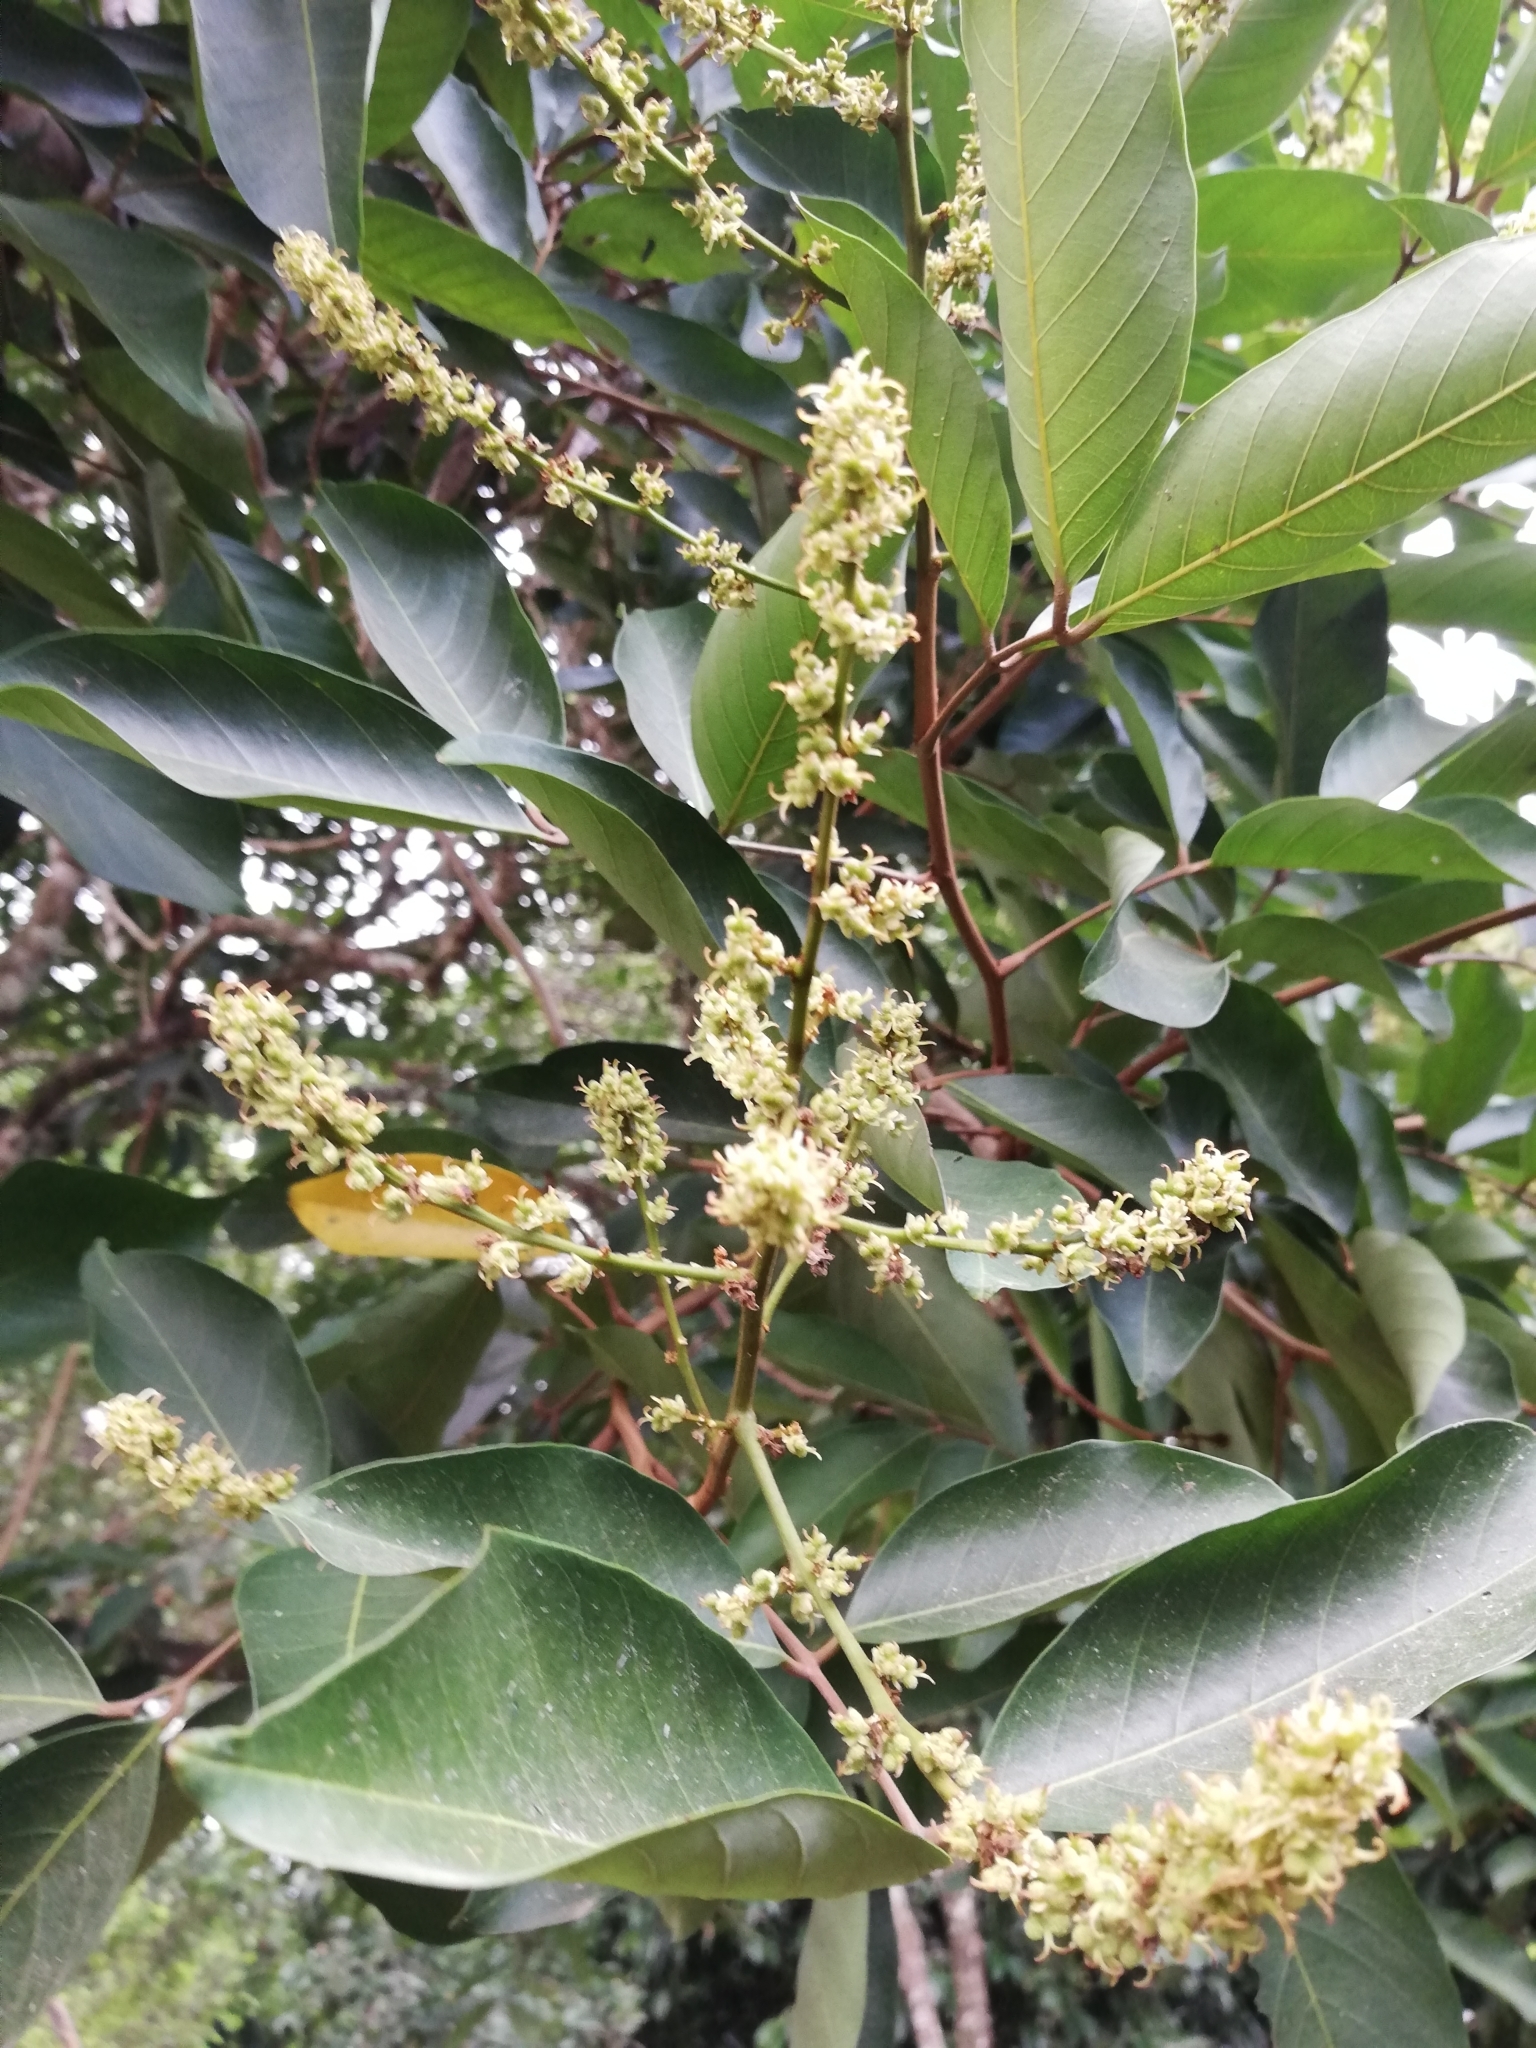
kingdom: Plantae
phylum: Tracheophyta
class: Magnoliopsida
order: Sapindales
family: Sapindaceae
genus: Nephelium
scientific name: Nephelium lappaceum
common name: Rambutan
